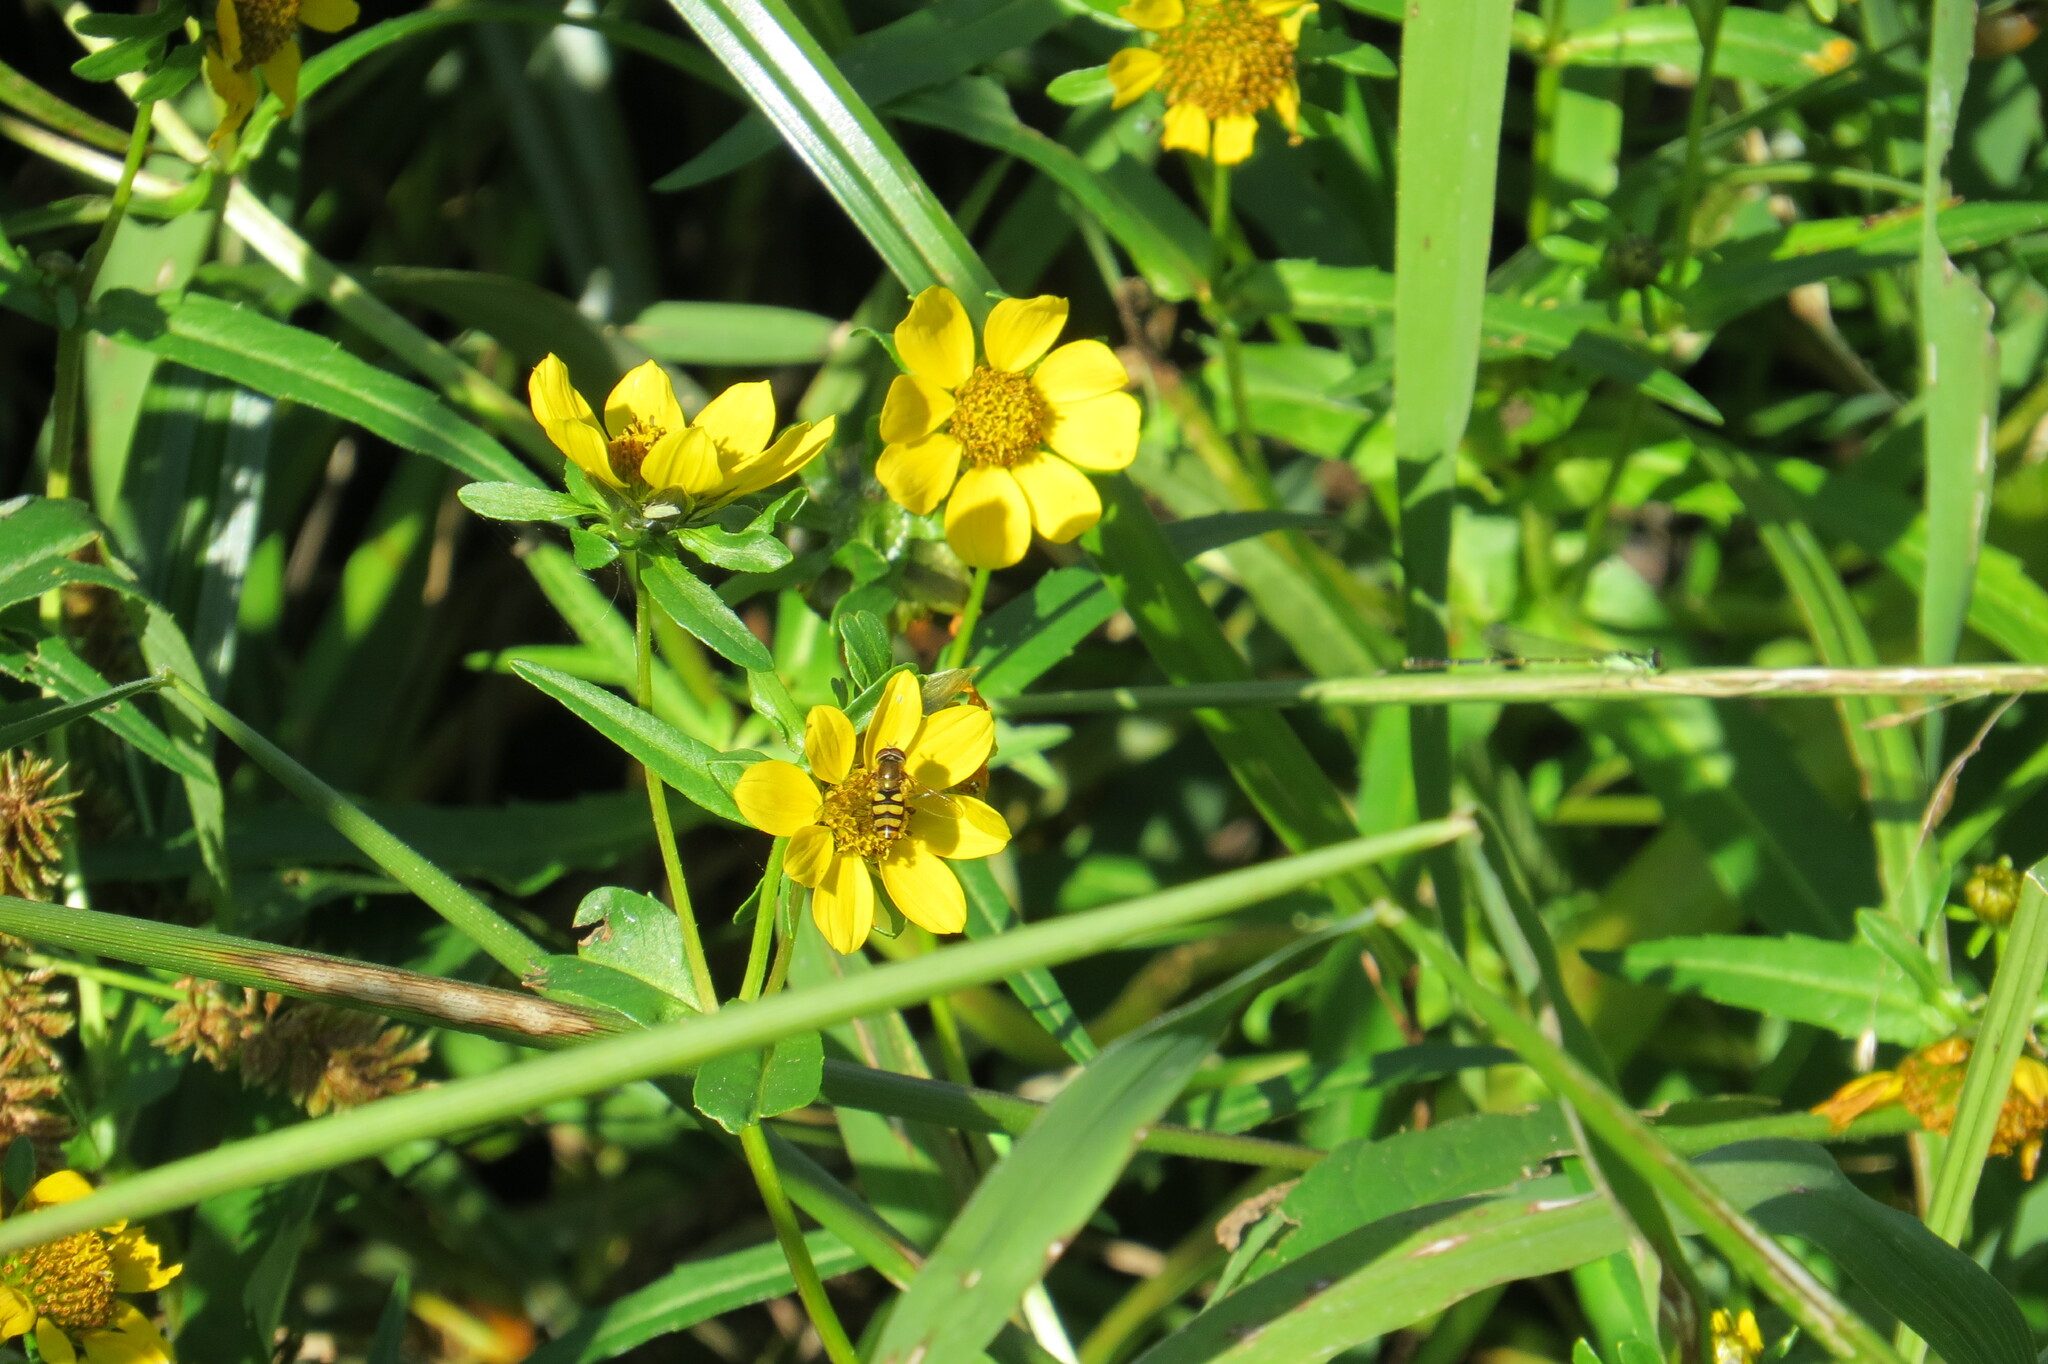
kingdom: Plantae
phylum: Tracheophyta
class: Magnoliopsida
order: Asterales
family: Asteraceae
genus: Bidens
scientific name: Bidens cernua
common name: Nodding bur-marigold
